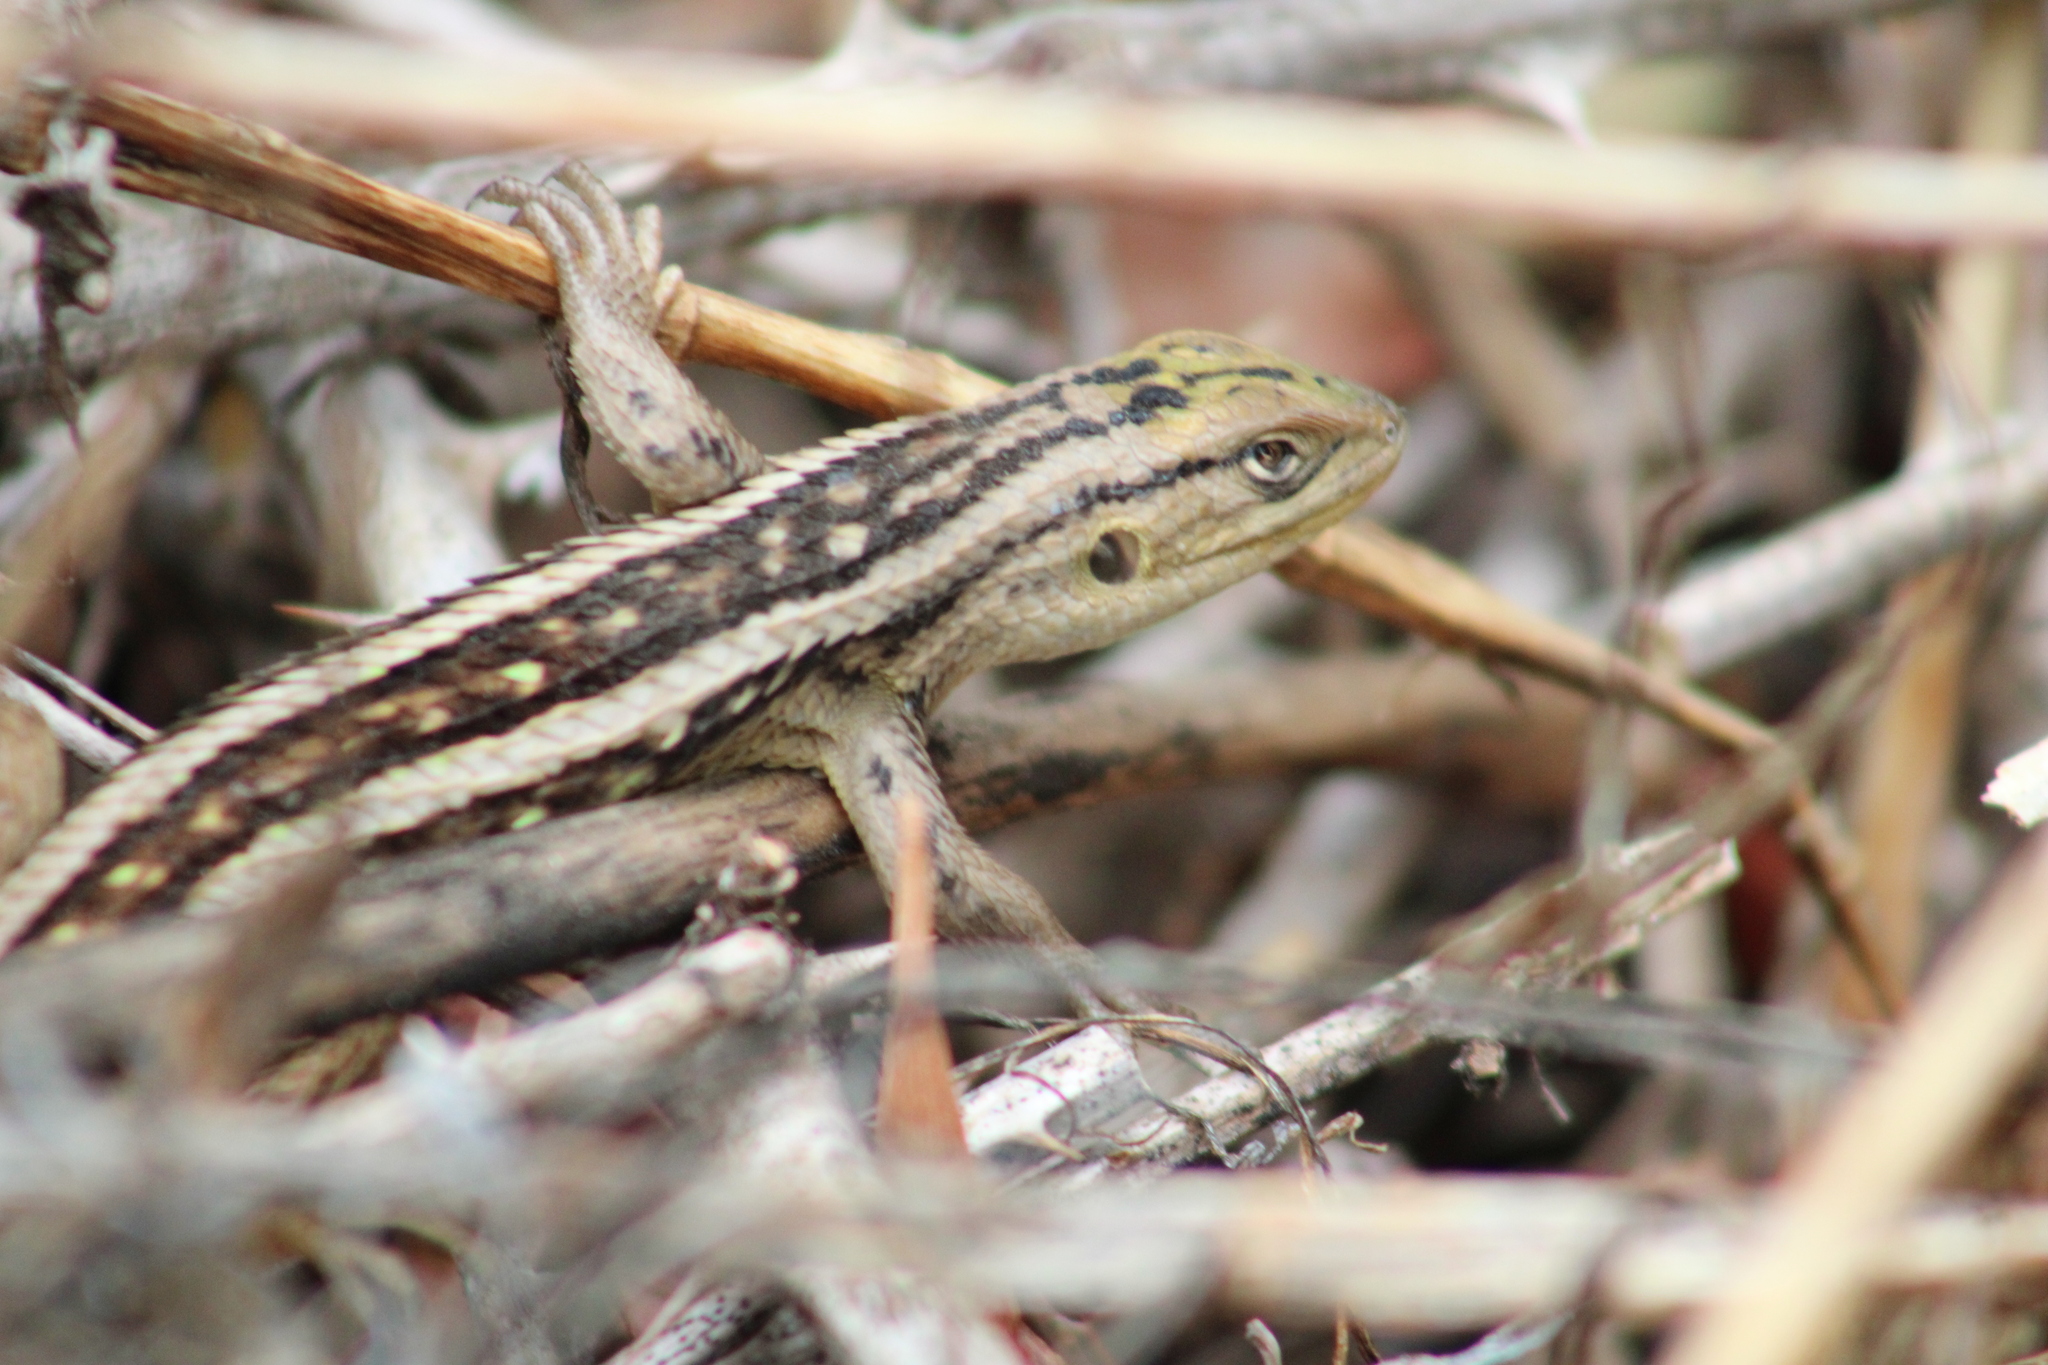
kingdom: Animalia
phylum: Chordata
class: Squamata
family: Liolaemidae
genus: Liolaemus
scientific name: Liolaemus chiliensis
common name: Chilean tree iguana
